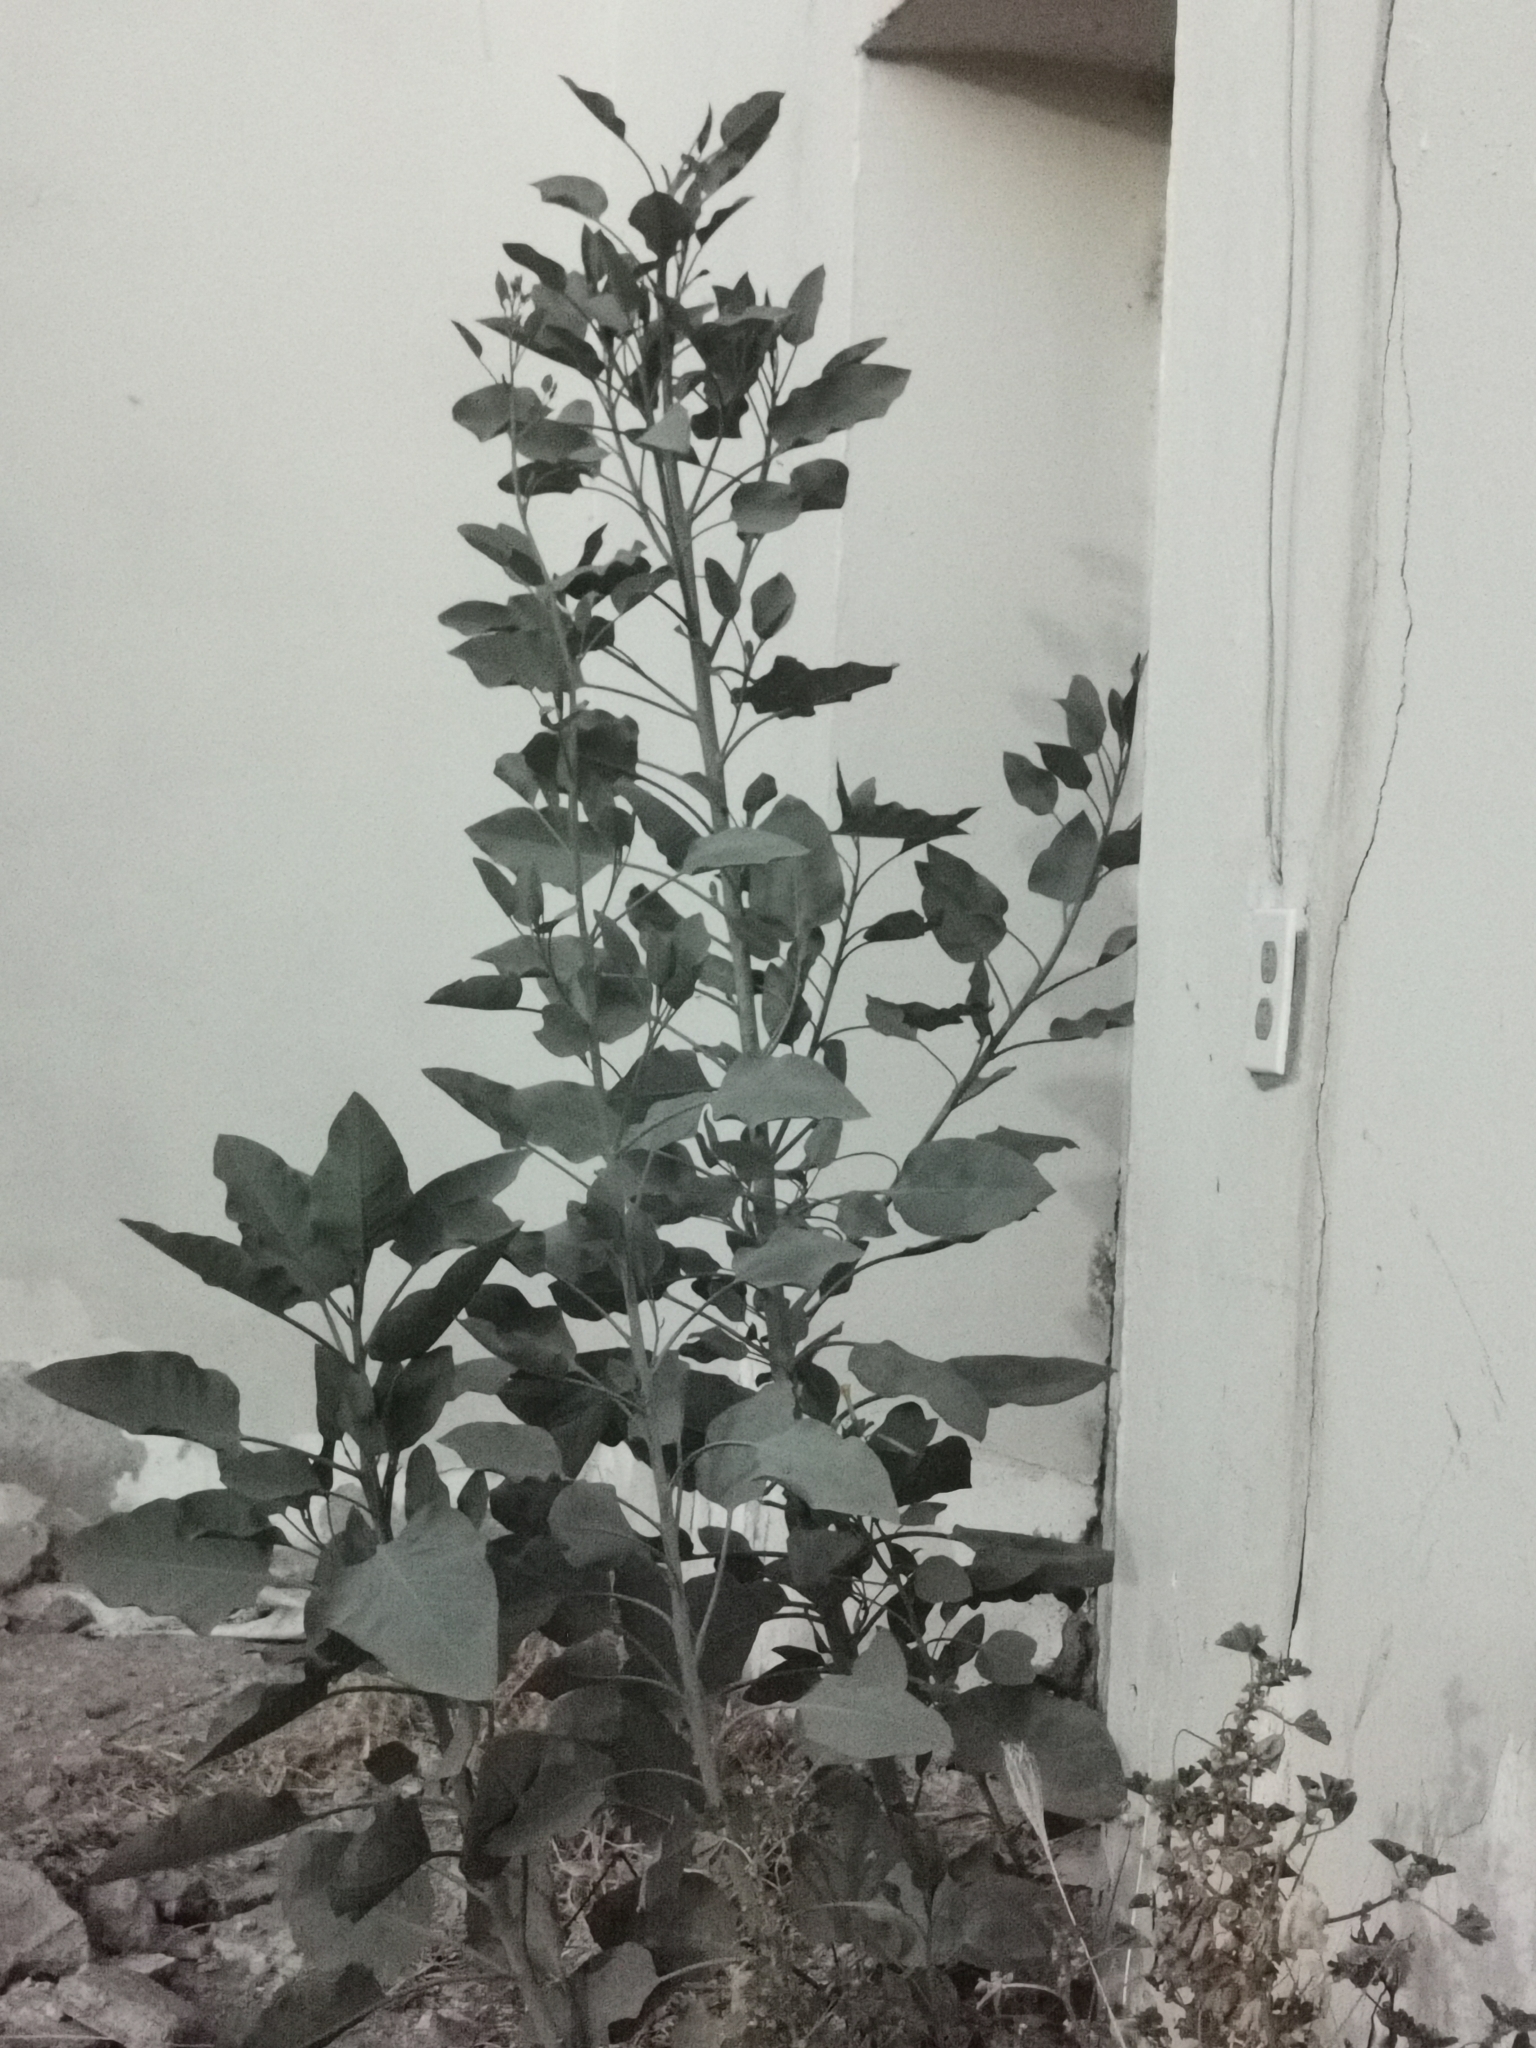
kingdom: Plantae
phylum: Tracheophyta
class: Magnoliopsida
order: Solanales
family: Solanaceae
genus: Nicotiana
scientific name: Nicotiana glauca
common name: Tree tobacco
